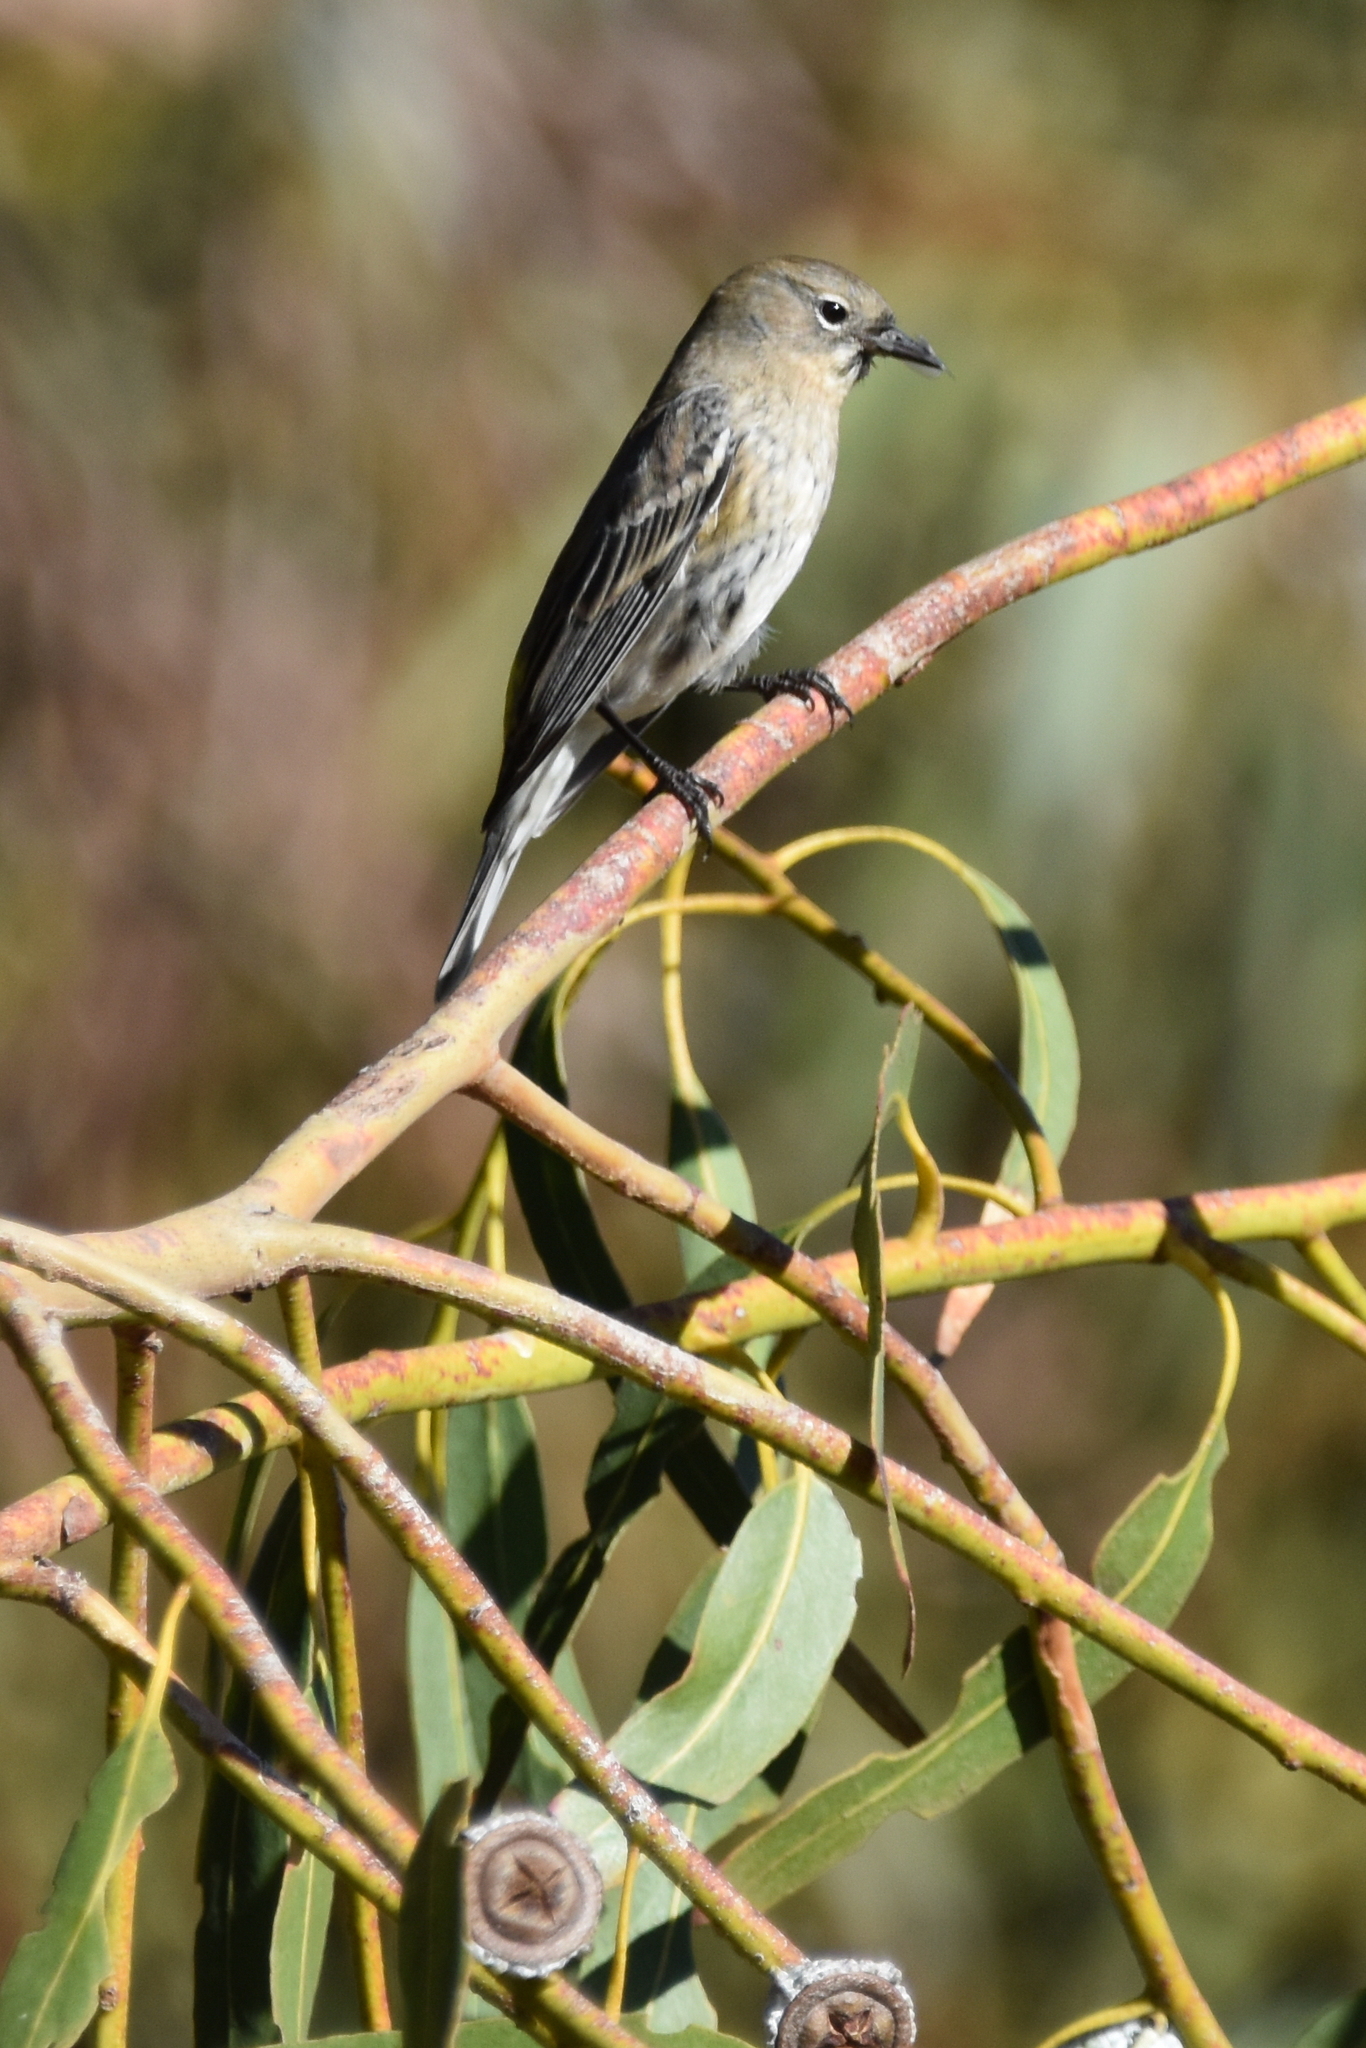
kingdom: Animalia
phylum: Chordata
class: Aves
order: Passeriformes
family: Parulidae
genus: Setophaga
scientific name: Setophaga auduboni
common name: Audubon's warbler
